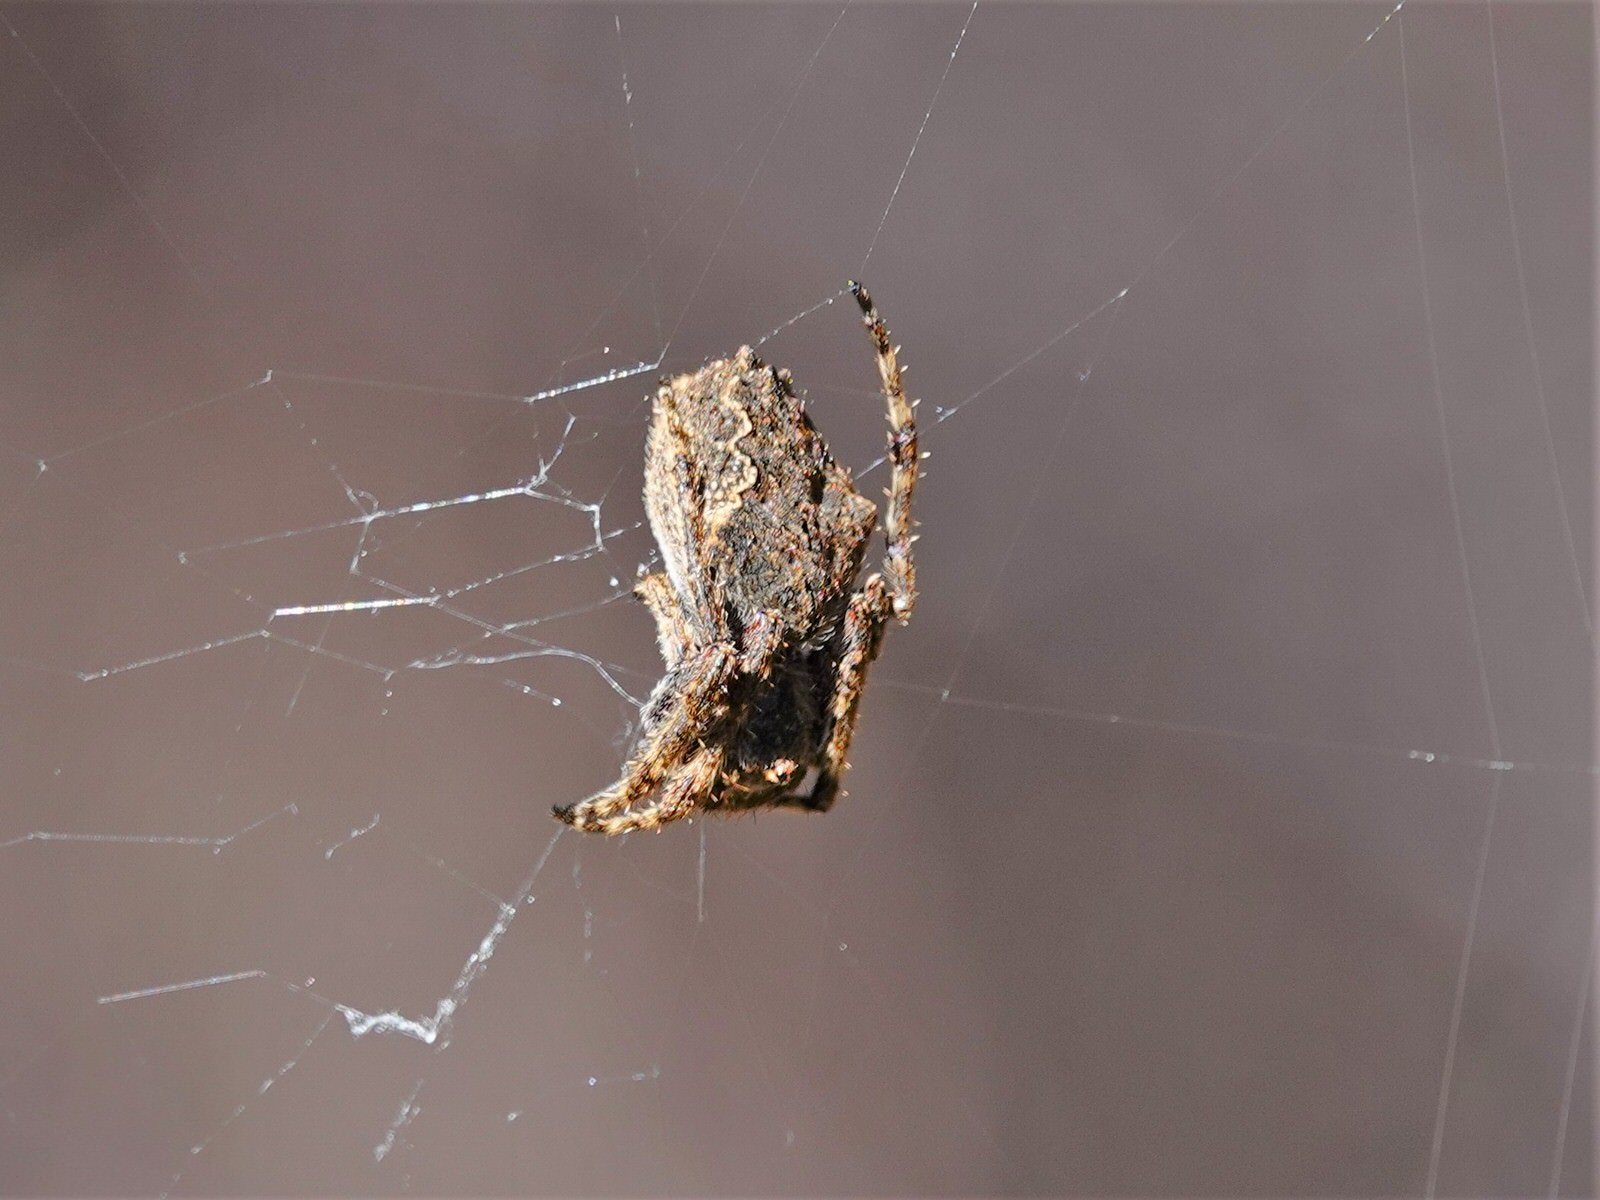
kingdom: Animalia
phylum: Arthropoda
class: Arachnida
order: Araneae
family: Araneidae
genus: Eriophora
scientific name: Eriophora pustulosa
